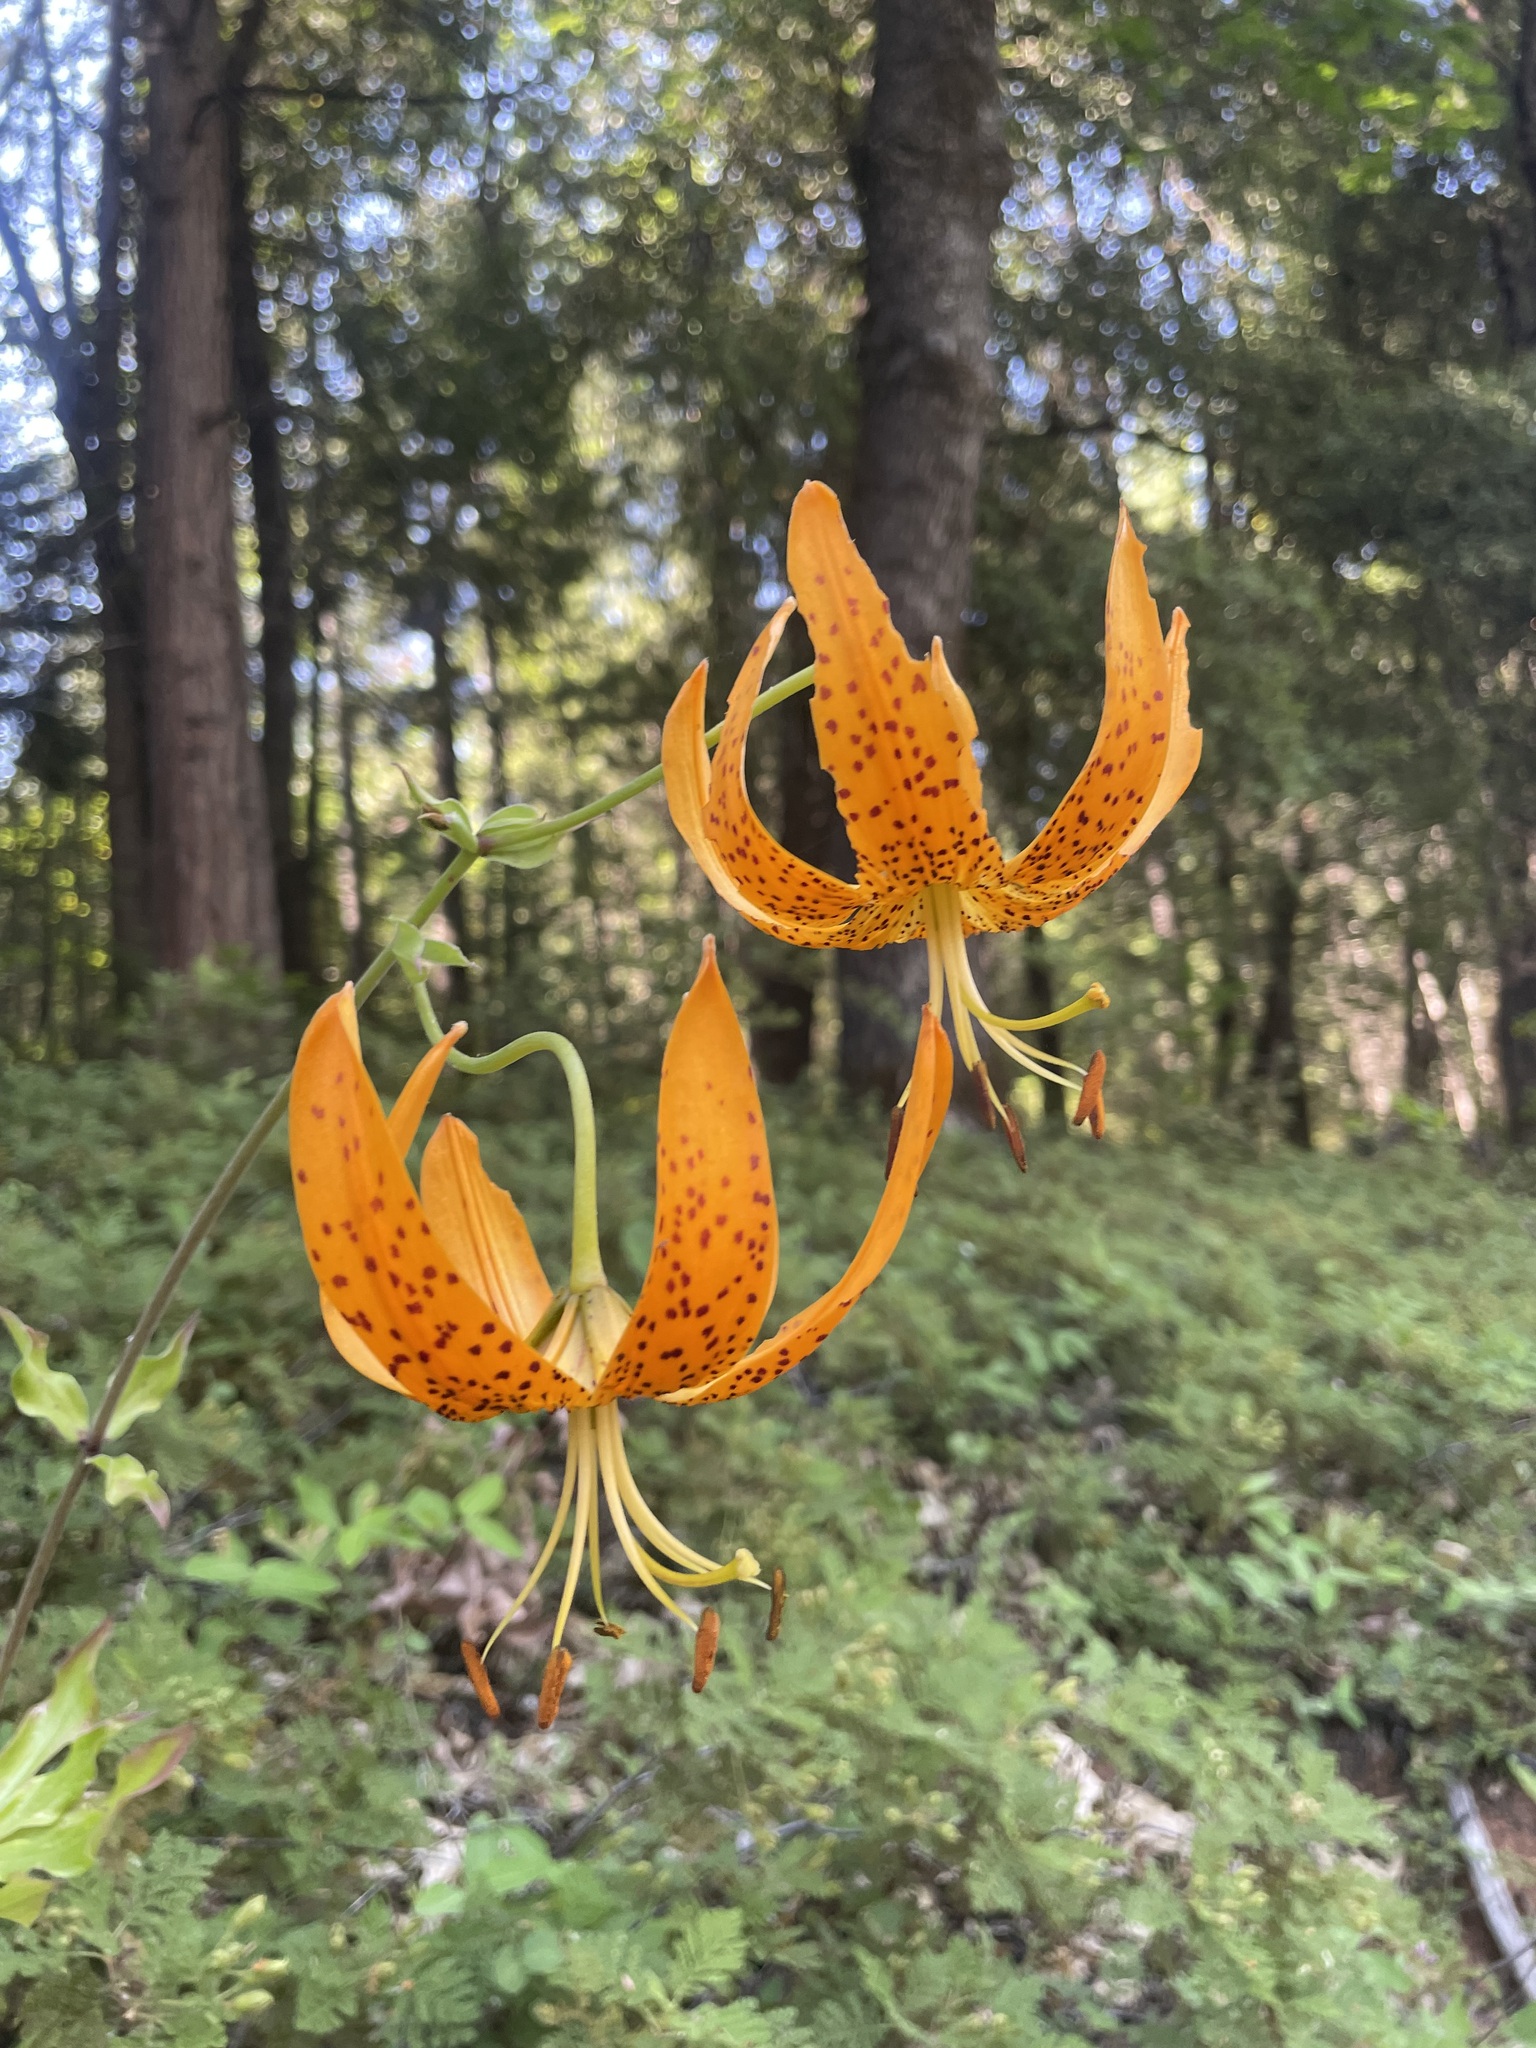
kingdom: Plantae
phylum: Tracheophyta
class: Liliopsida
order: Liliales
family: Liliaceae
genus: Lilium
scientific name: Lilium humboldtii
